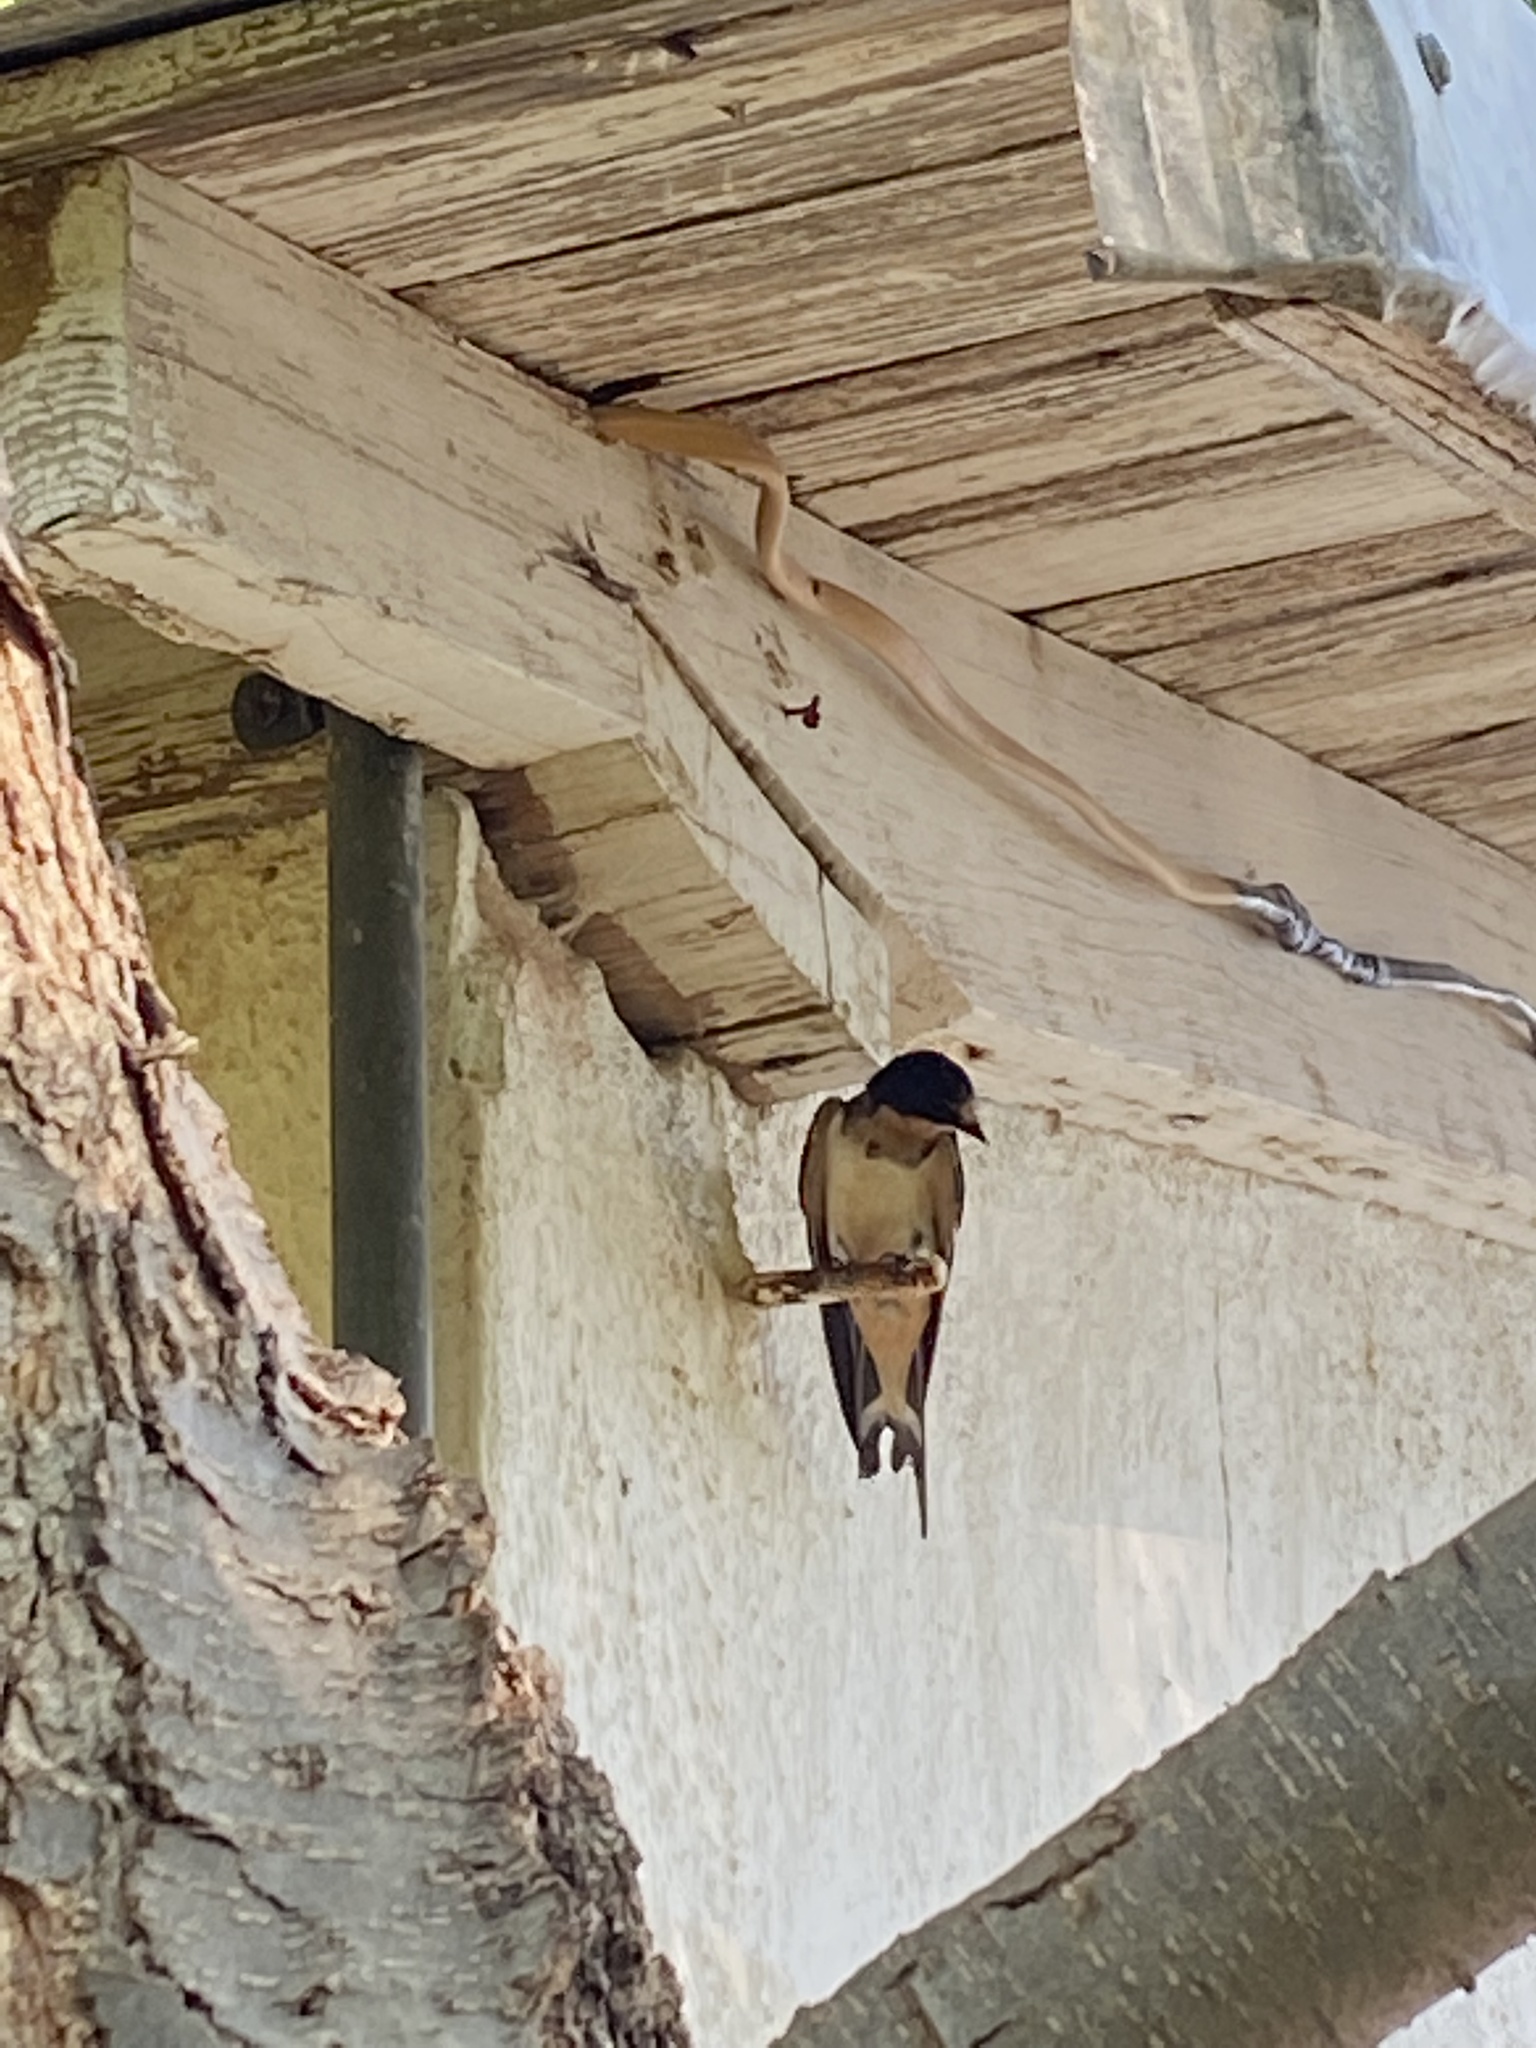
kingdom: Animalia
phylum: Chordata
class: Aves
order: Passeriformes
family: Hirundinidae
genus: Hirundo
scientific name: Hirundo rustica
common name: Barn swallow
